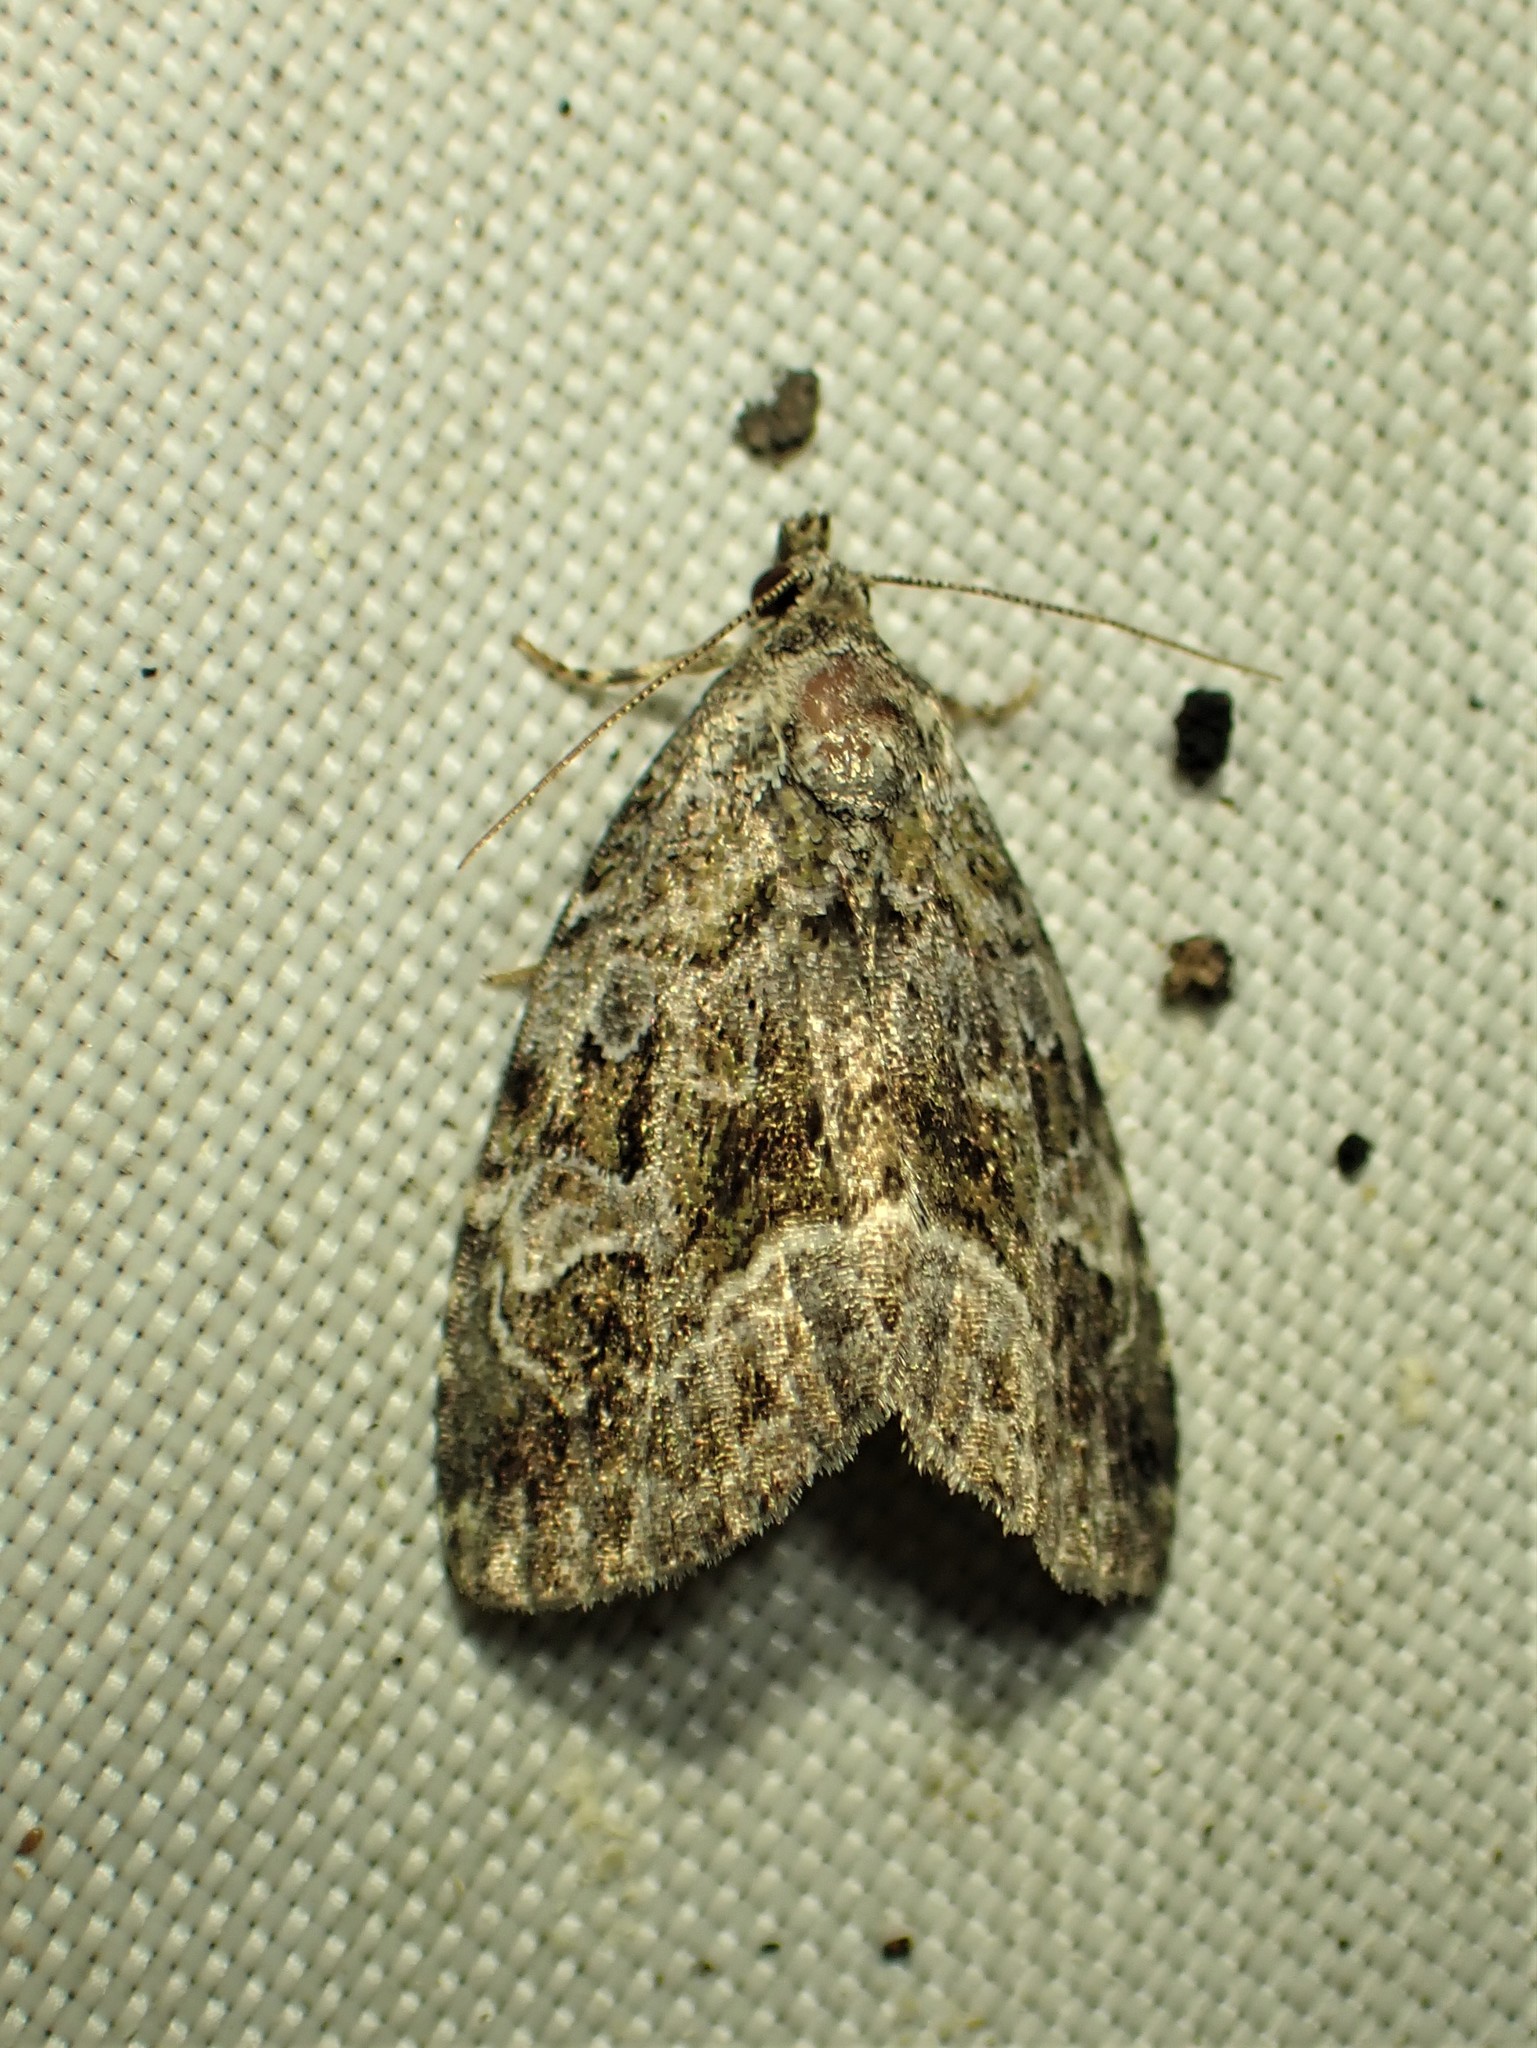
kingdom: Animalia
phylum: Arthropoda
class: Insecta
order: Lepidoptera
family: Noctuidae
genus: Protodeltote
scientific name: Protodeltote muscosula
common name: Large mossy glyph
